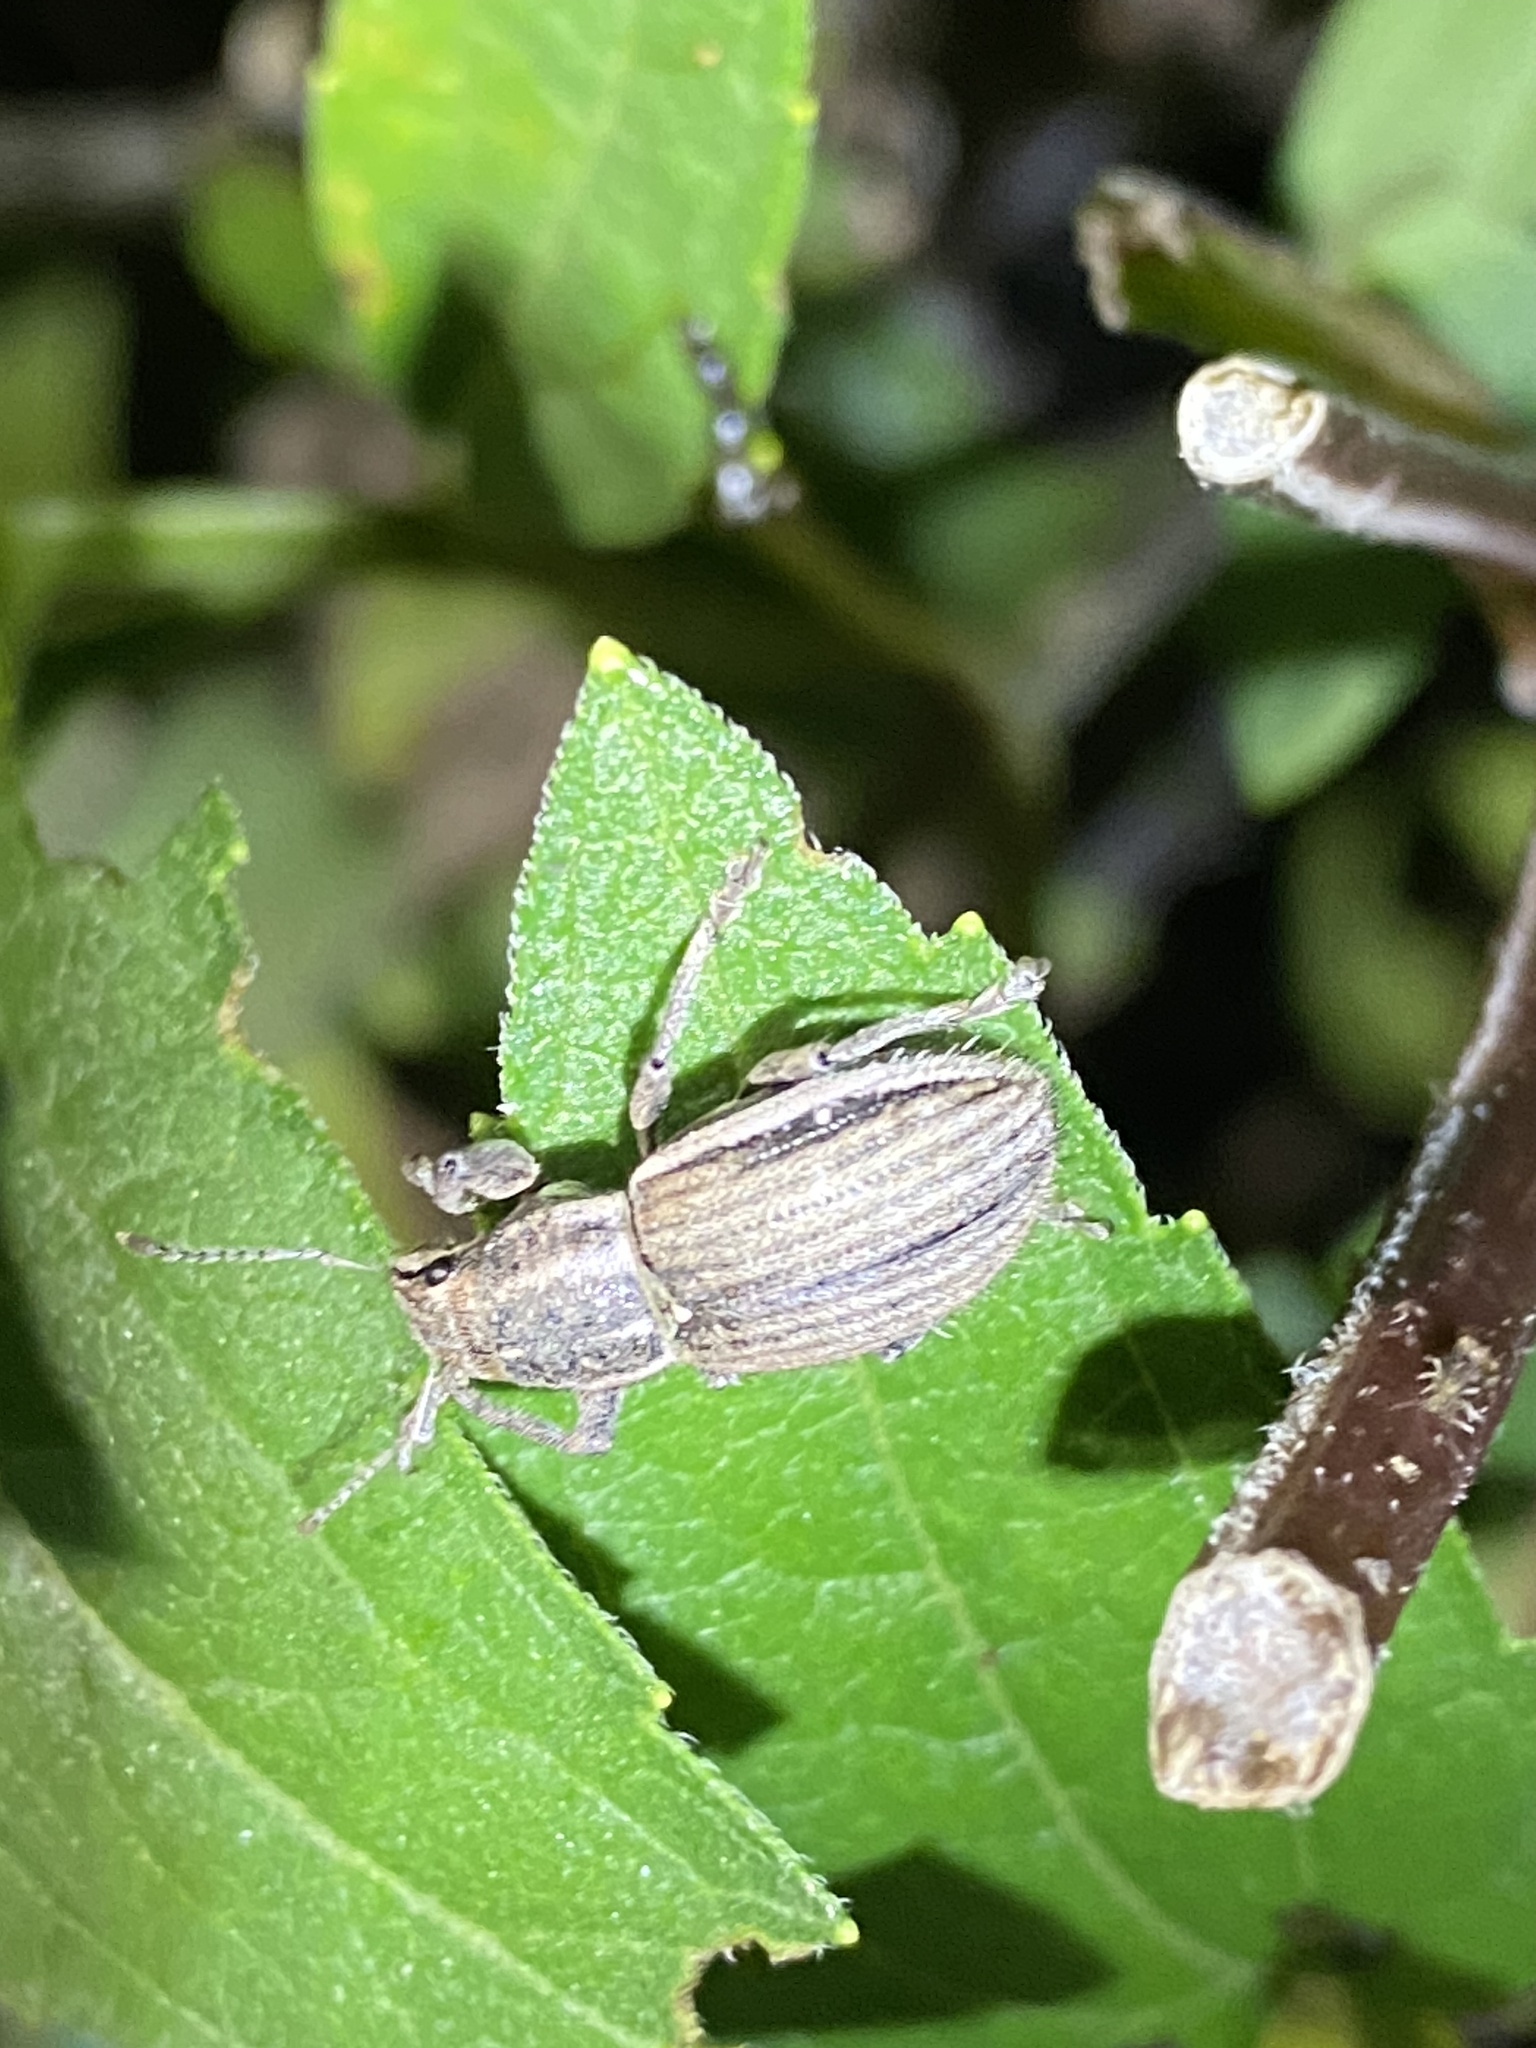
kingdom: Animalia
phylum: Arthropoda
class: Insecta
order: Coleoptera
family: Curculionidae
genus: Naupactus
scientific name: Naupactus leucoloma
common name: Whitefringed beetle
